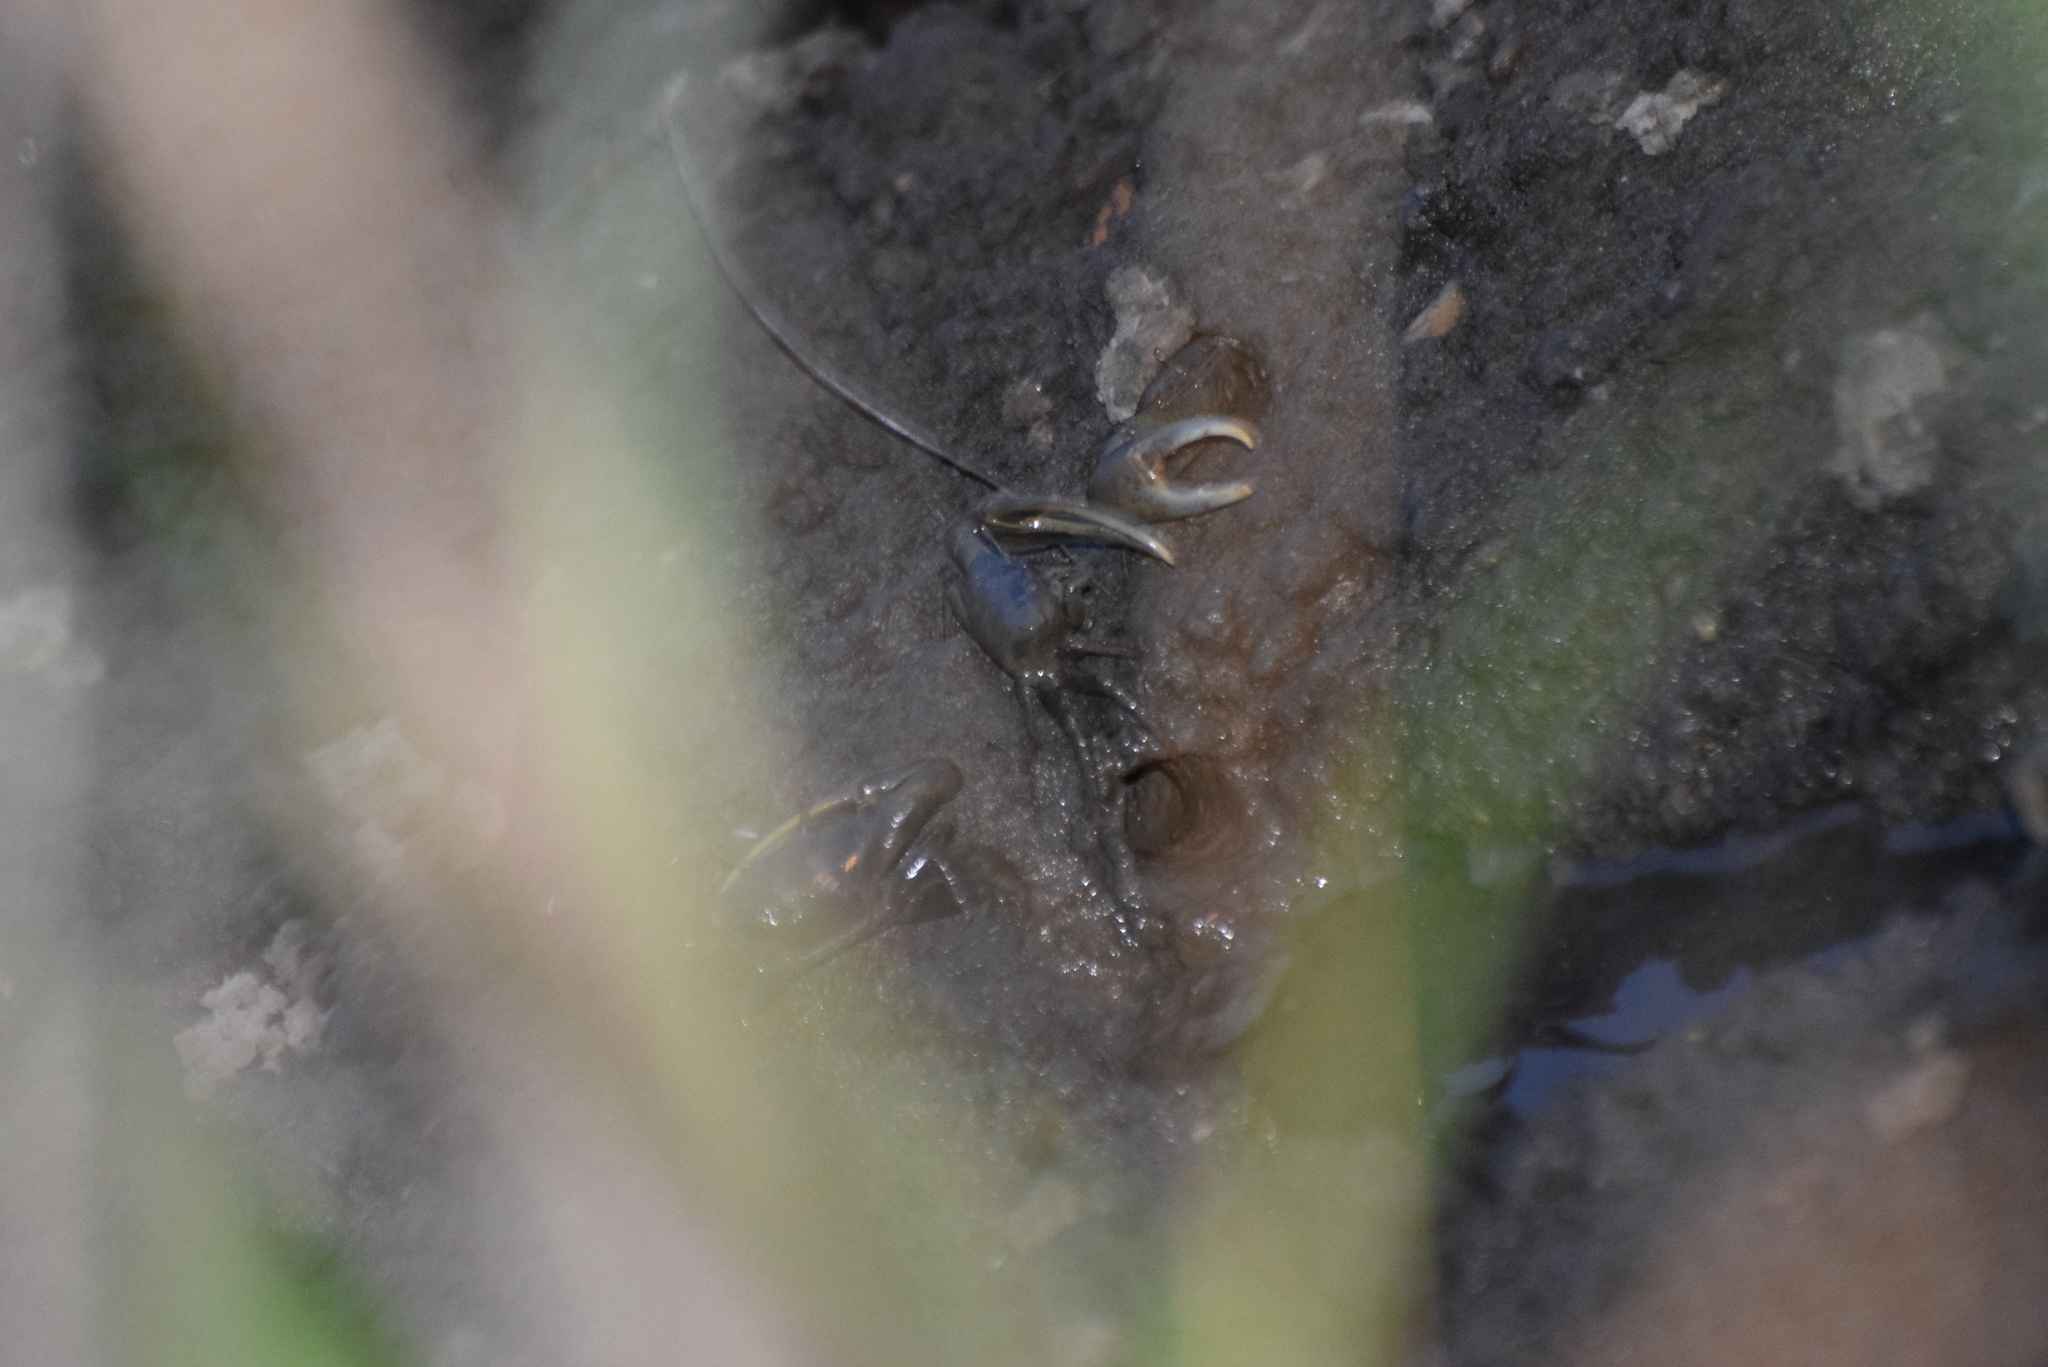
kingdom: Animalia
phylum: Arthropoda
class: Malacostraca
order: Decapoda
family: Ocypodidae
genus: Minuca
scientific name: Minuca pugnax
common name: Mud fiddler crab
